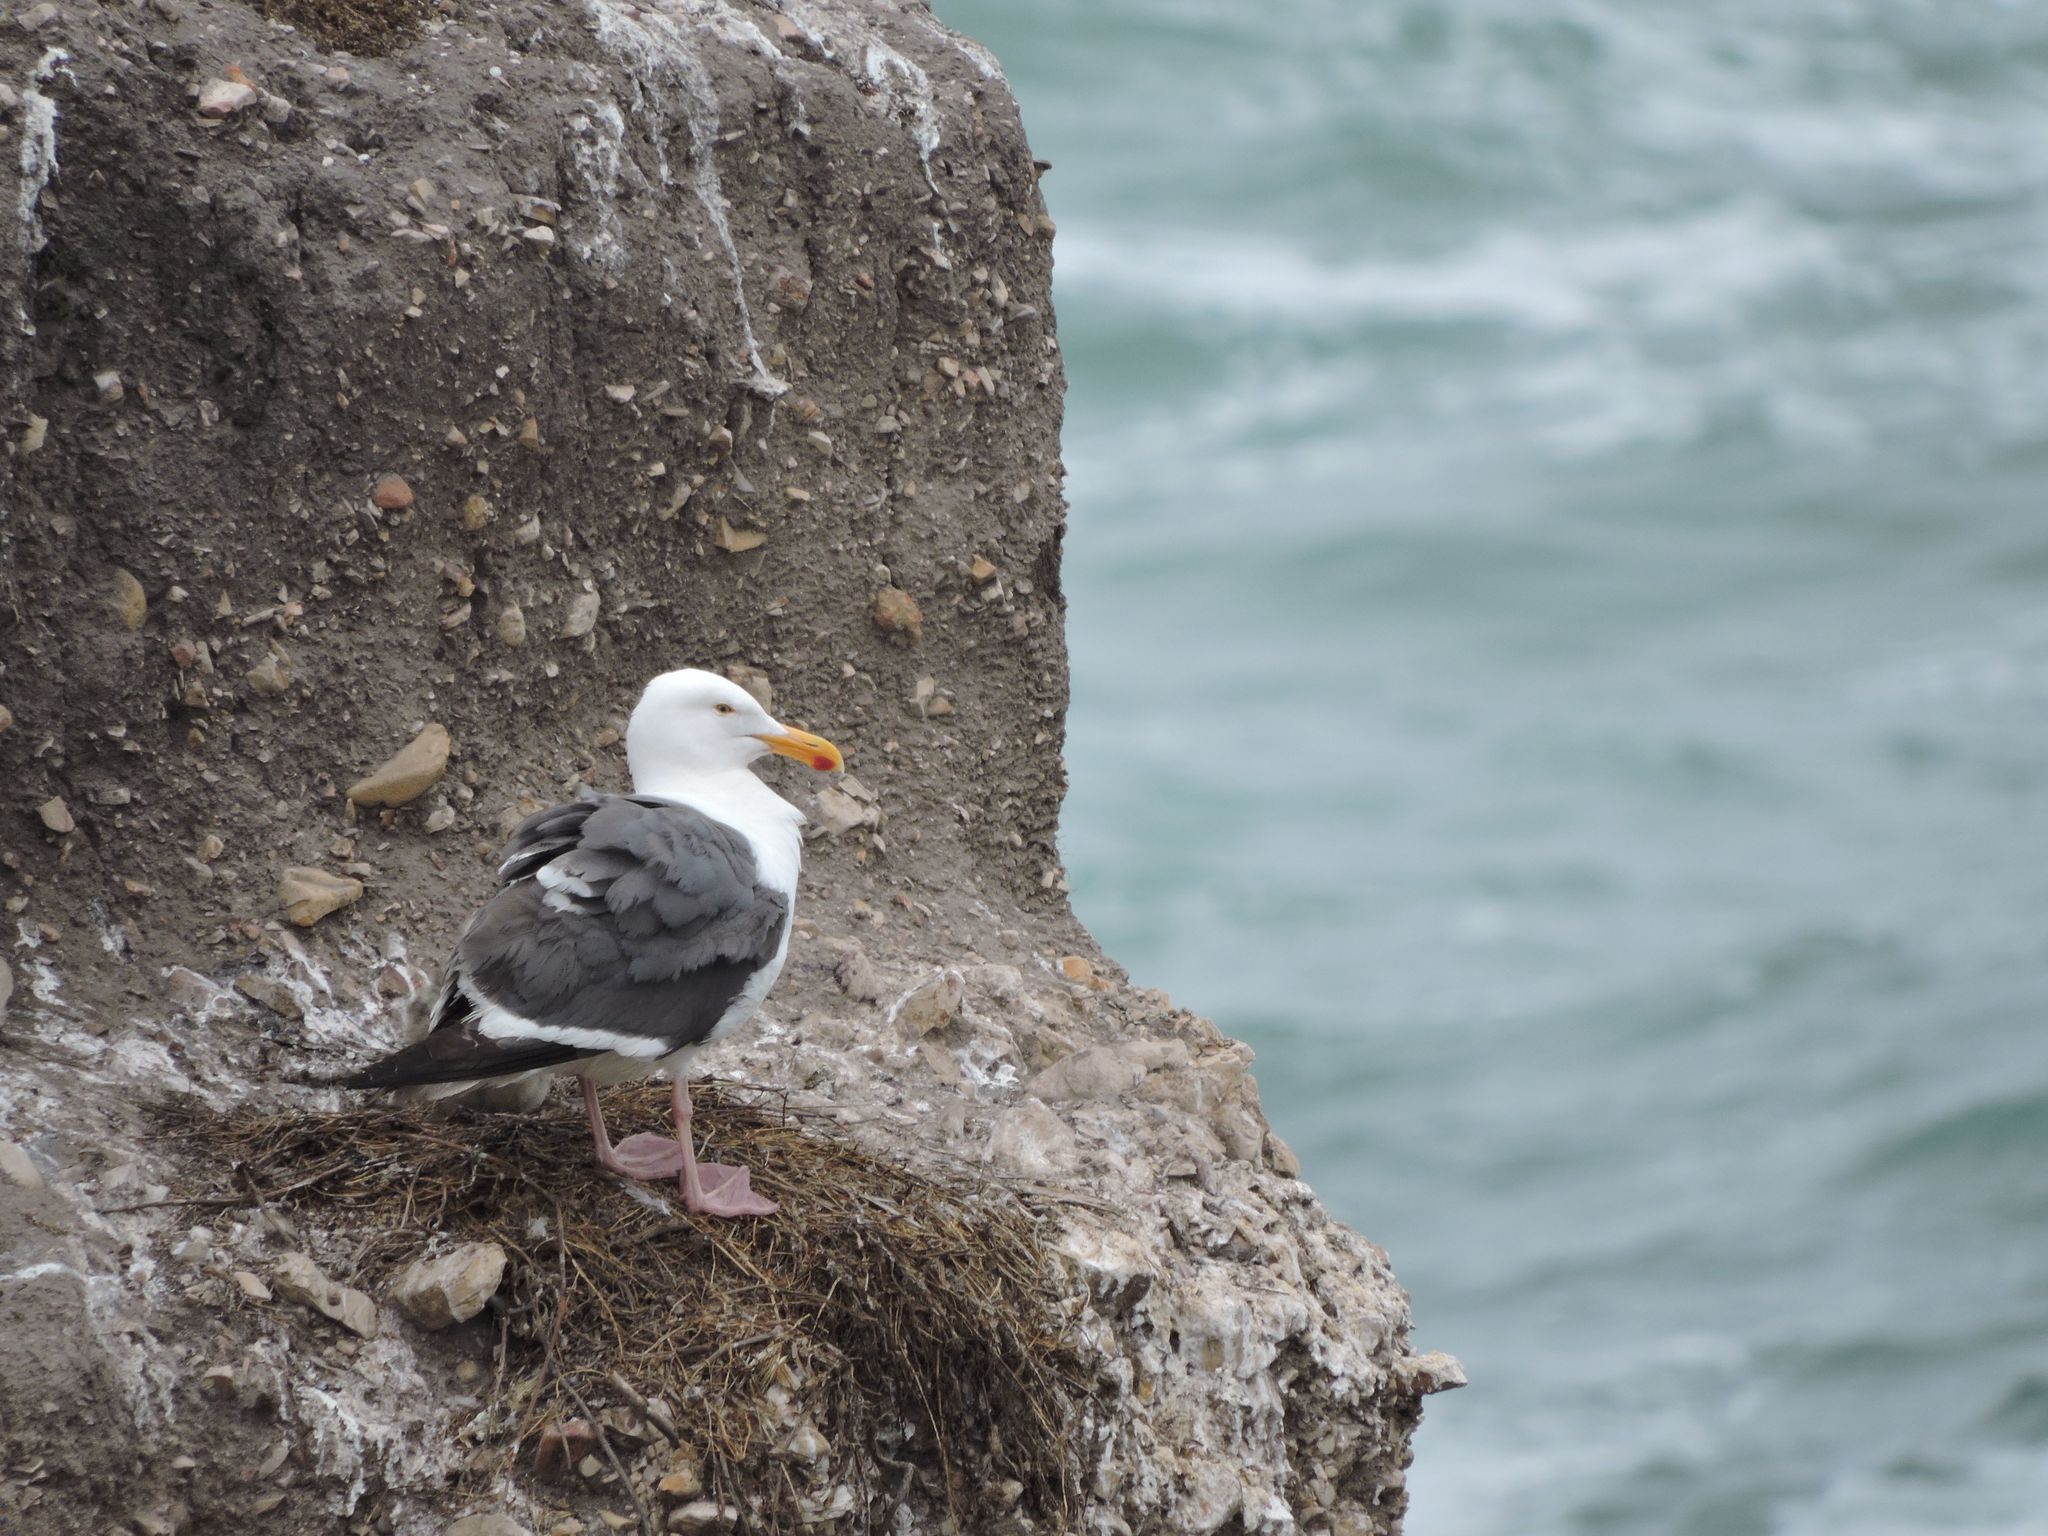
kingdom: Animalia
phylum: Chordata
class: Aves
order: Charadriiformes
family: Laridae
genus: Larus
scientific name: Larus occidentalis
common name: Western gull
